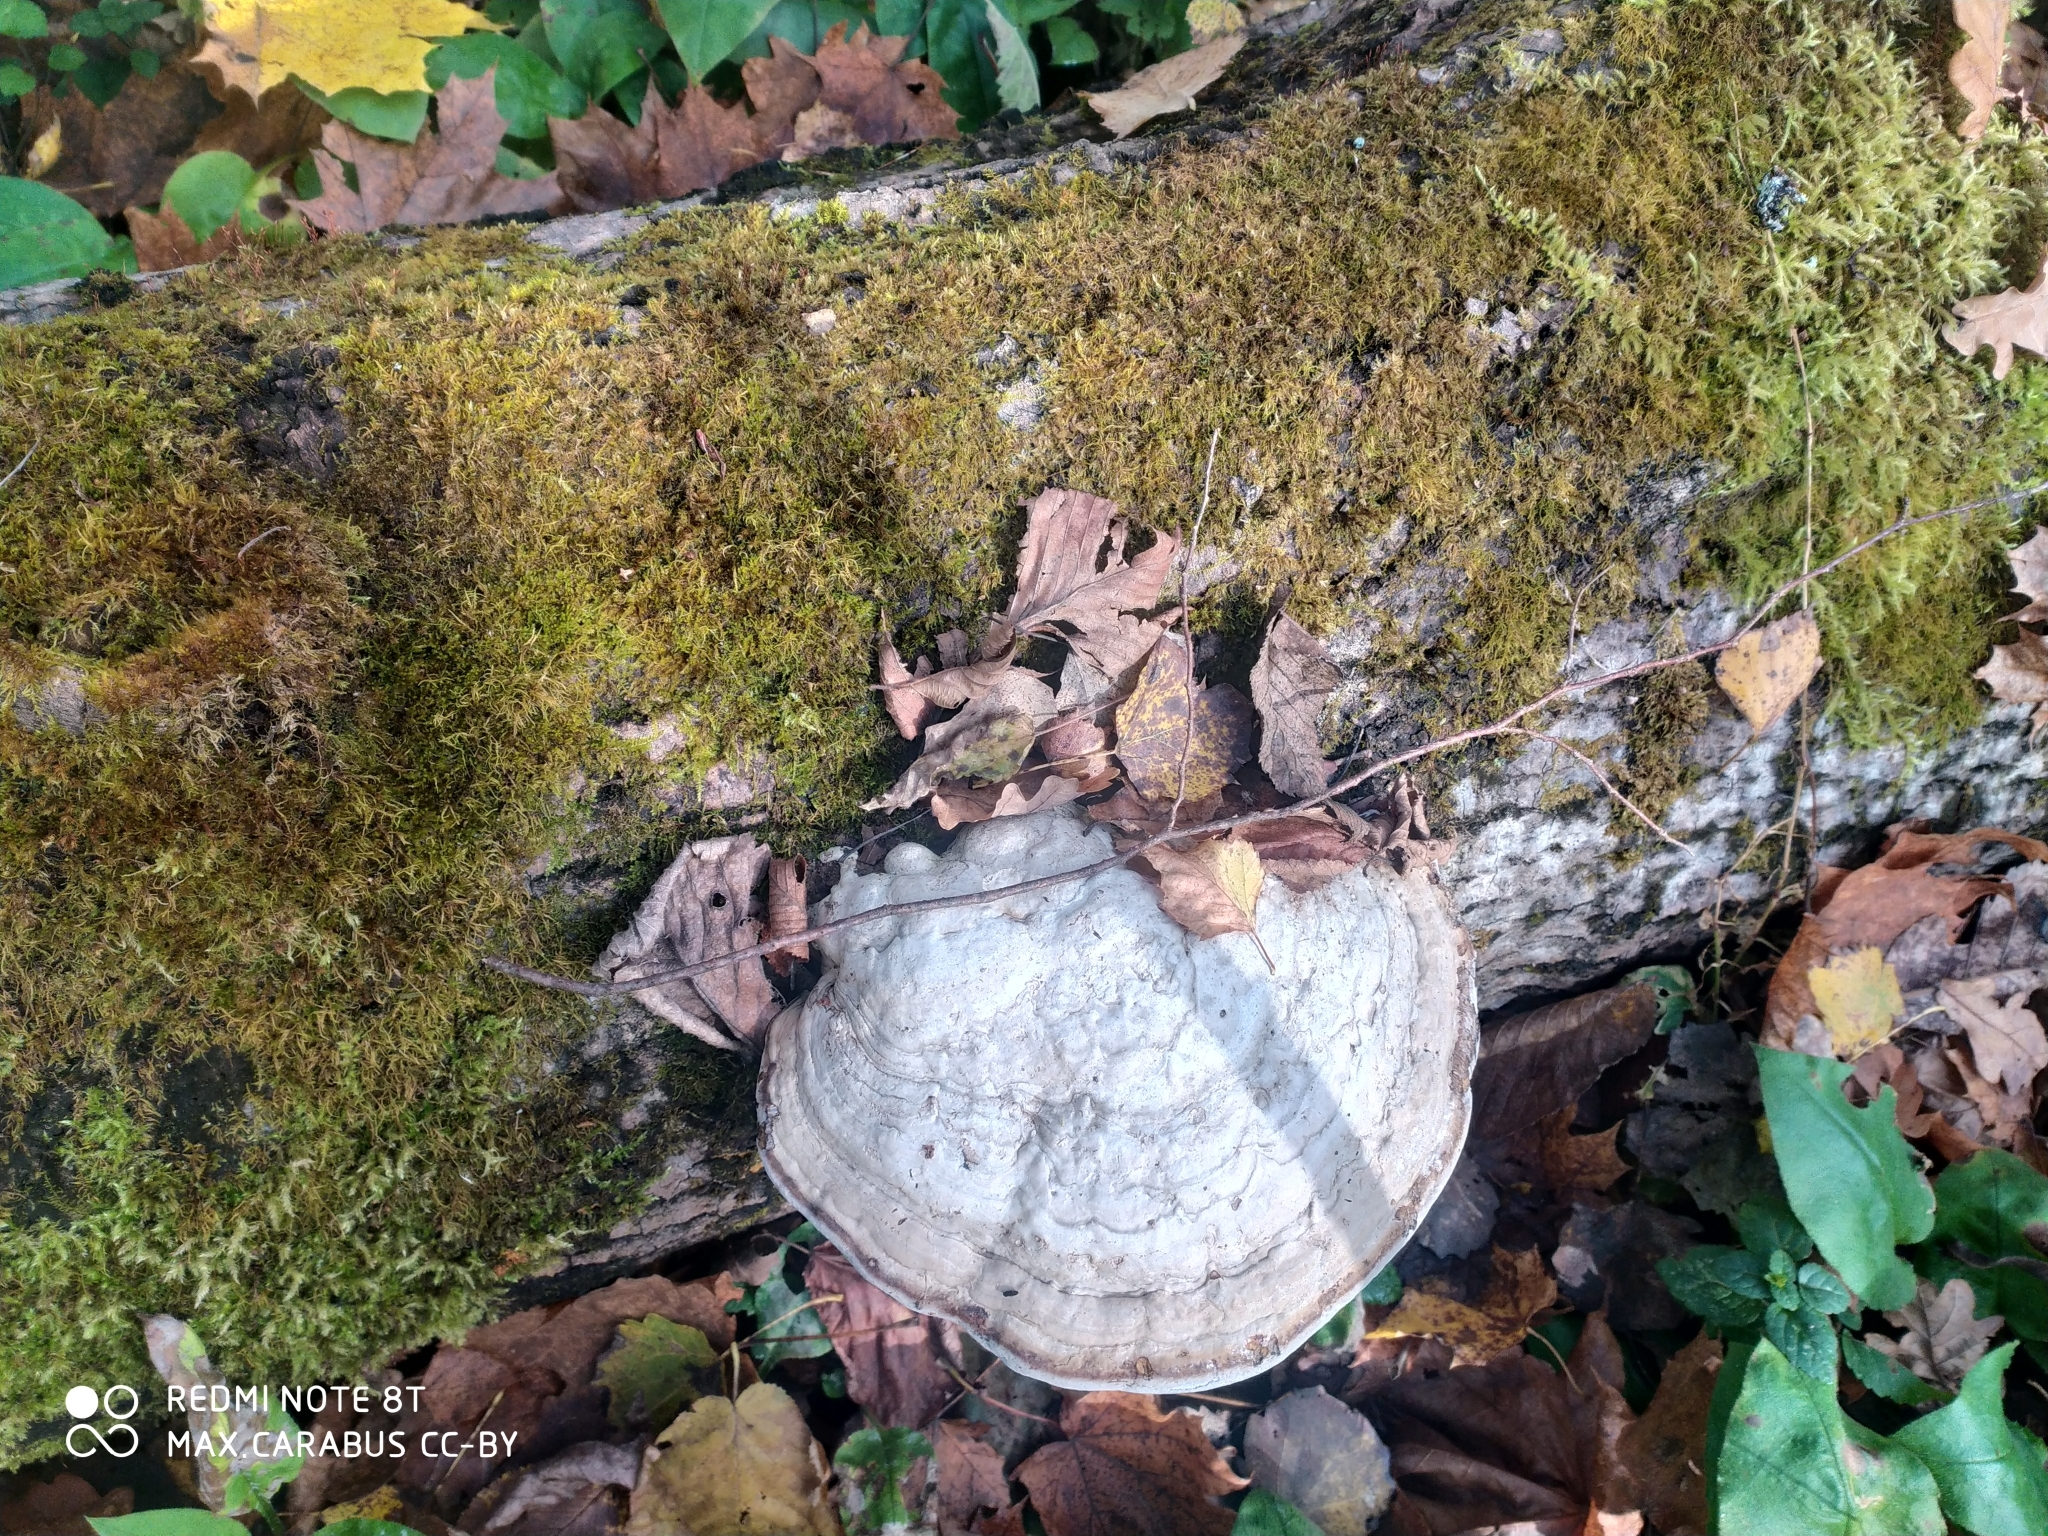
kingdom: Fungi
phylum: Basidiomycota
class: Agaricomycetes
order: Polyporales
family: Polyporaceae
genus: Fomes
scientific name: Fomes fomentarius
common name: Hoof fungus
